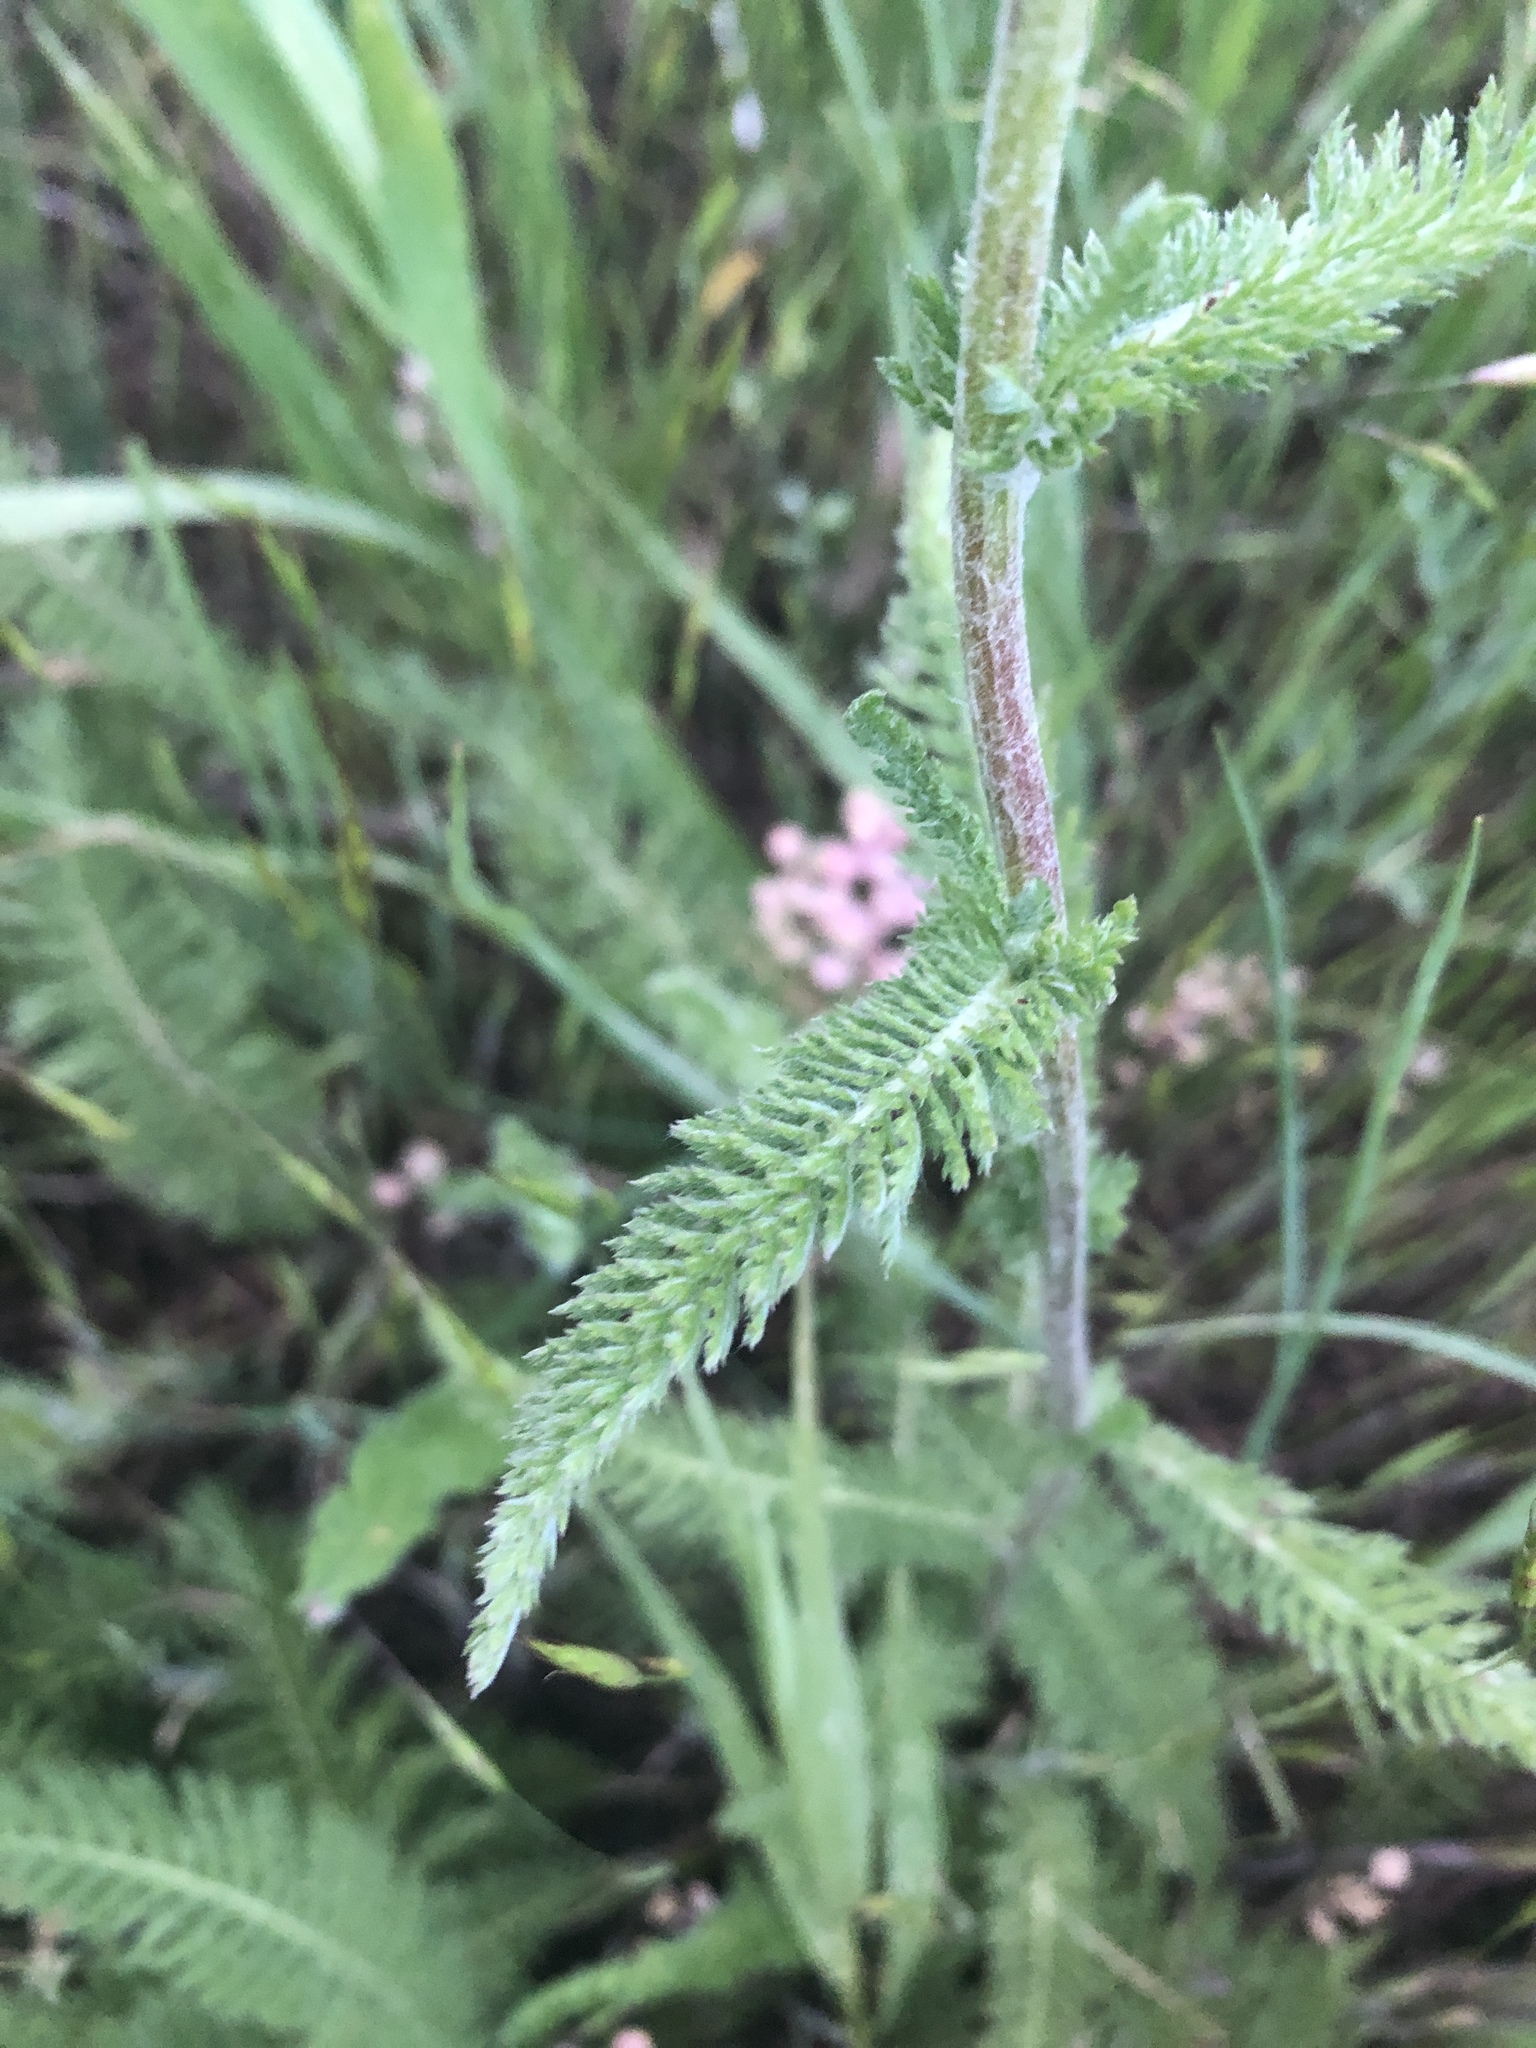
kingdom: Plantae
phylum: Tracheophyta
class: Magnoliopsida
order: Asterales
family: Asteraceae
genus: Achillea
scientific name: Achillea millefolium
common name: Yarrow
